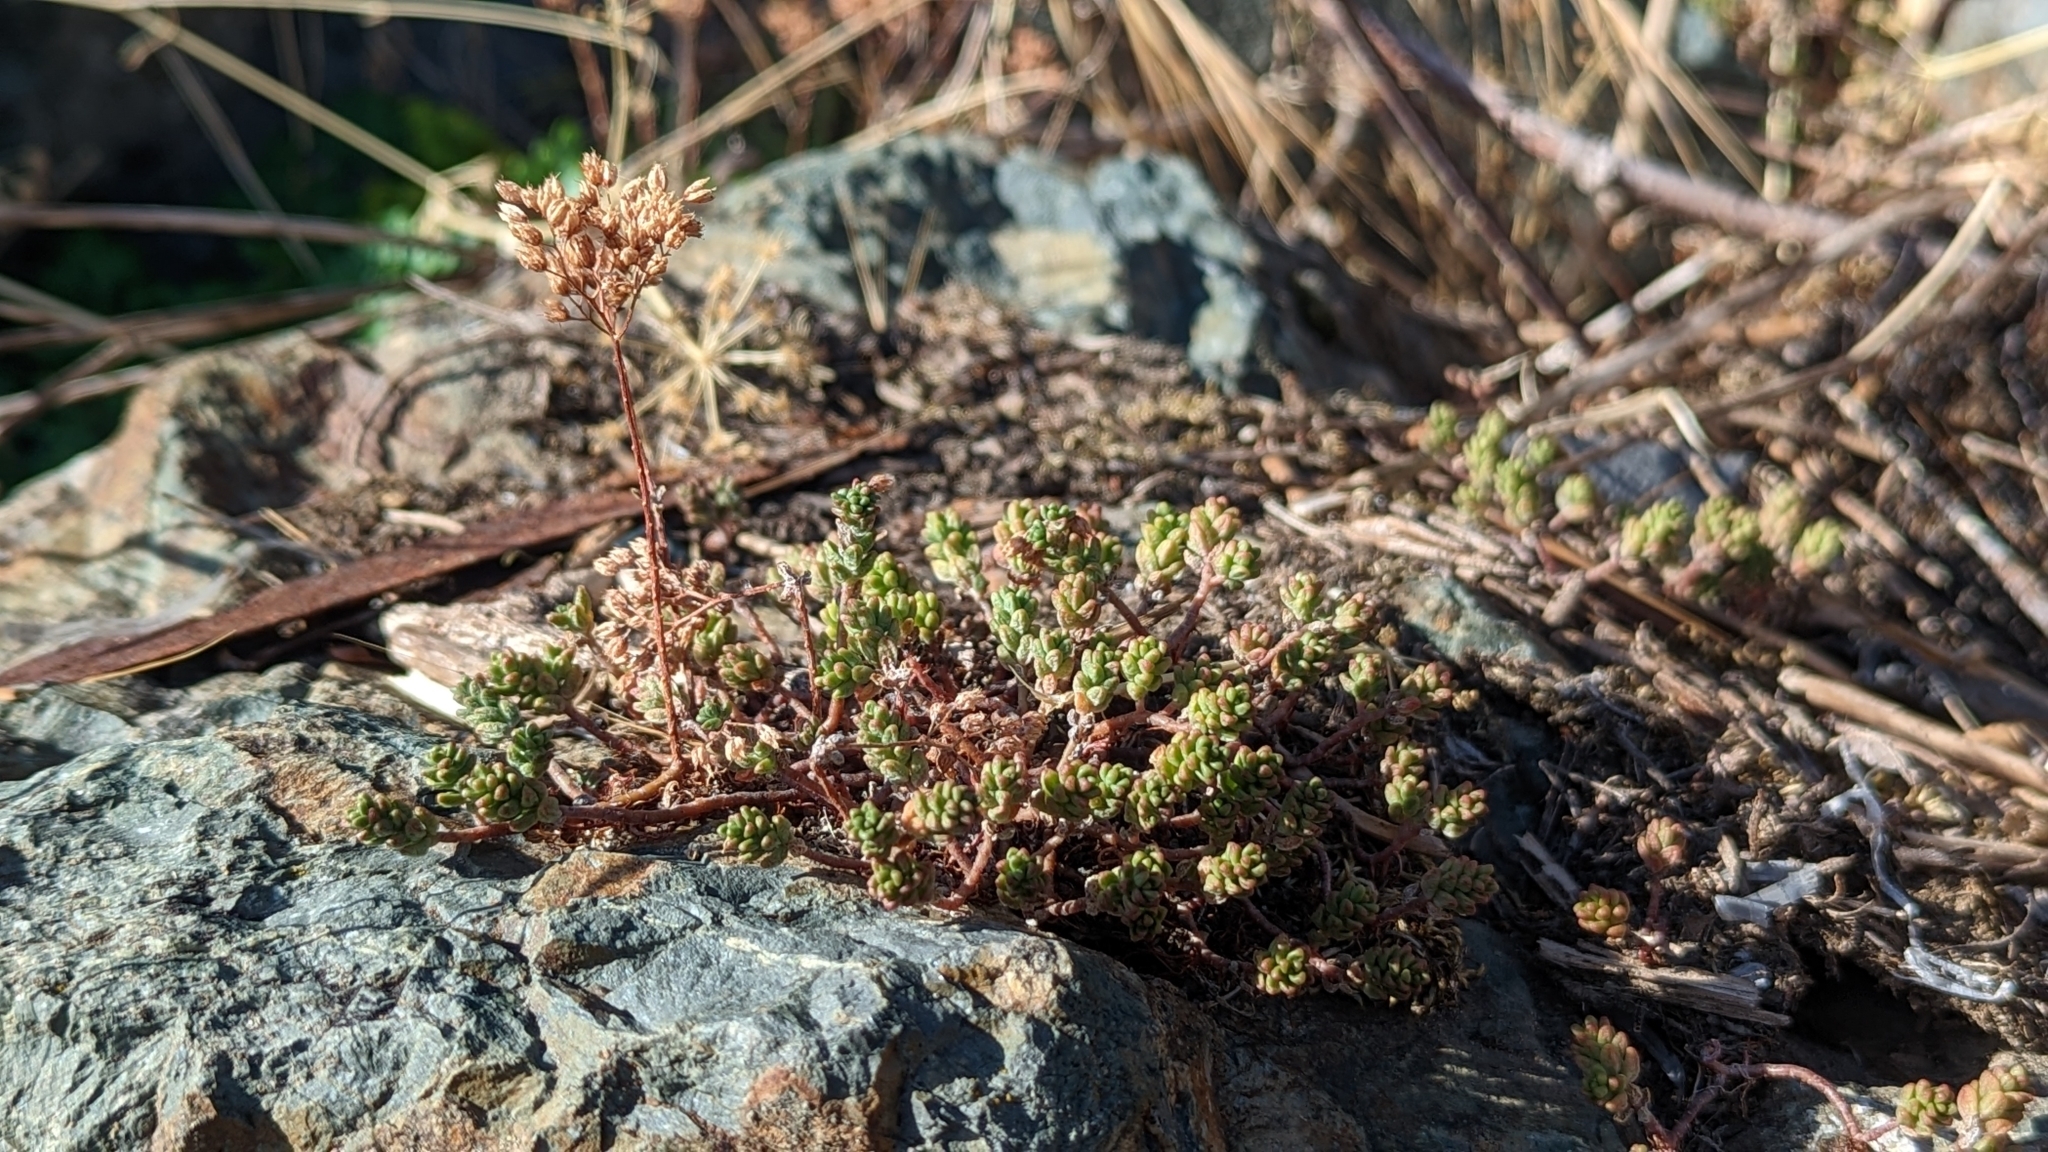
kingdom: Plantae
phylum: Tracheophyta
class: Magnoliopsida
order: Saxifragales
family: Crassulaceae
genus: Sedum
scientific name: Sedum album
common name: White stonecrop
